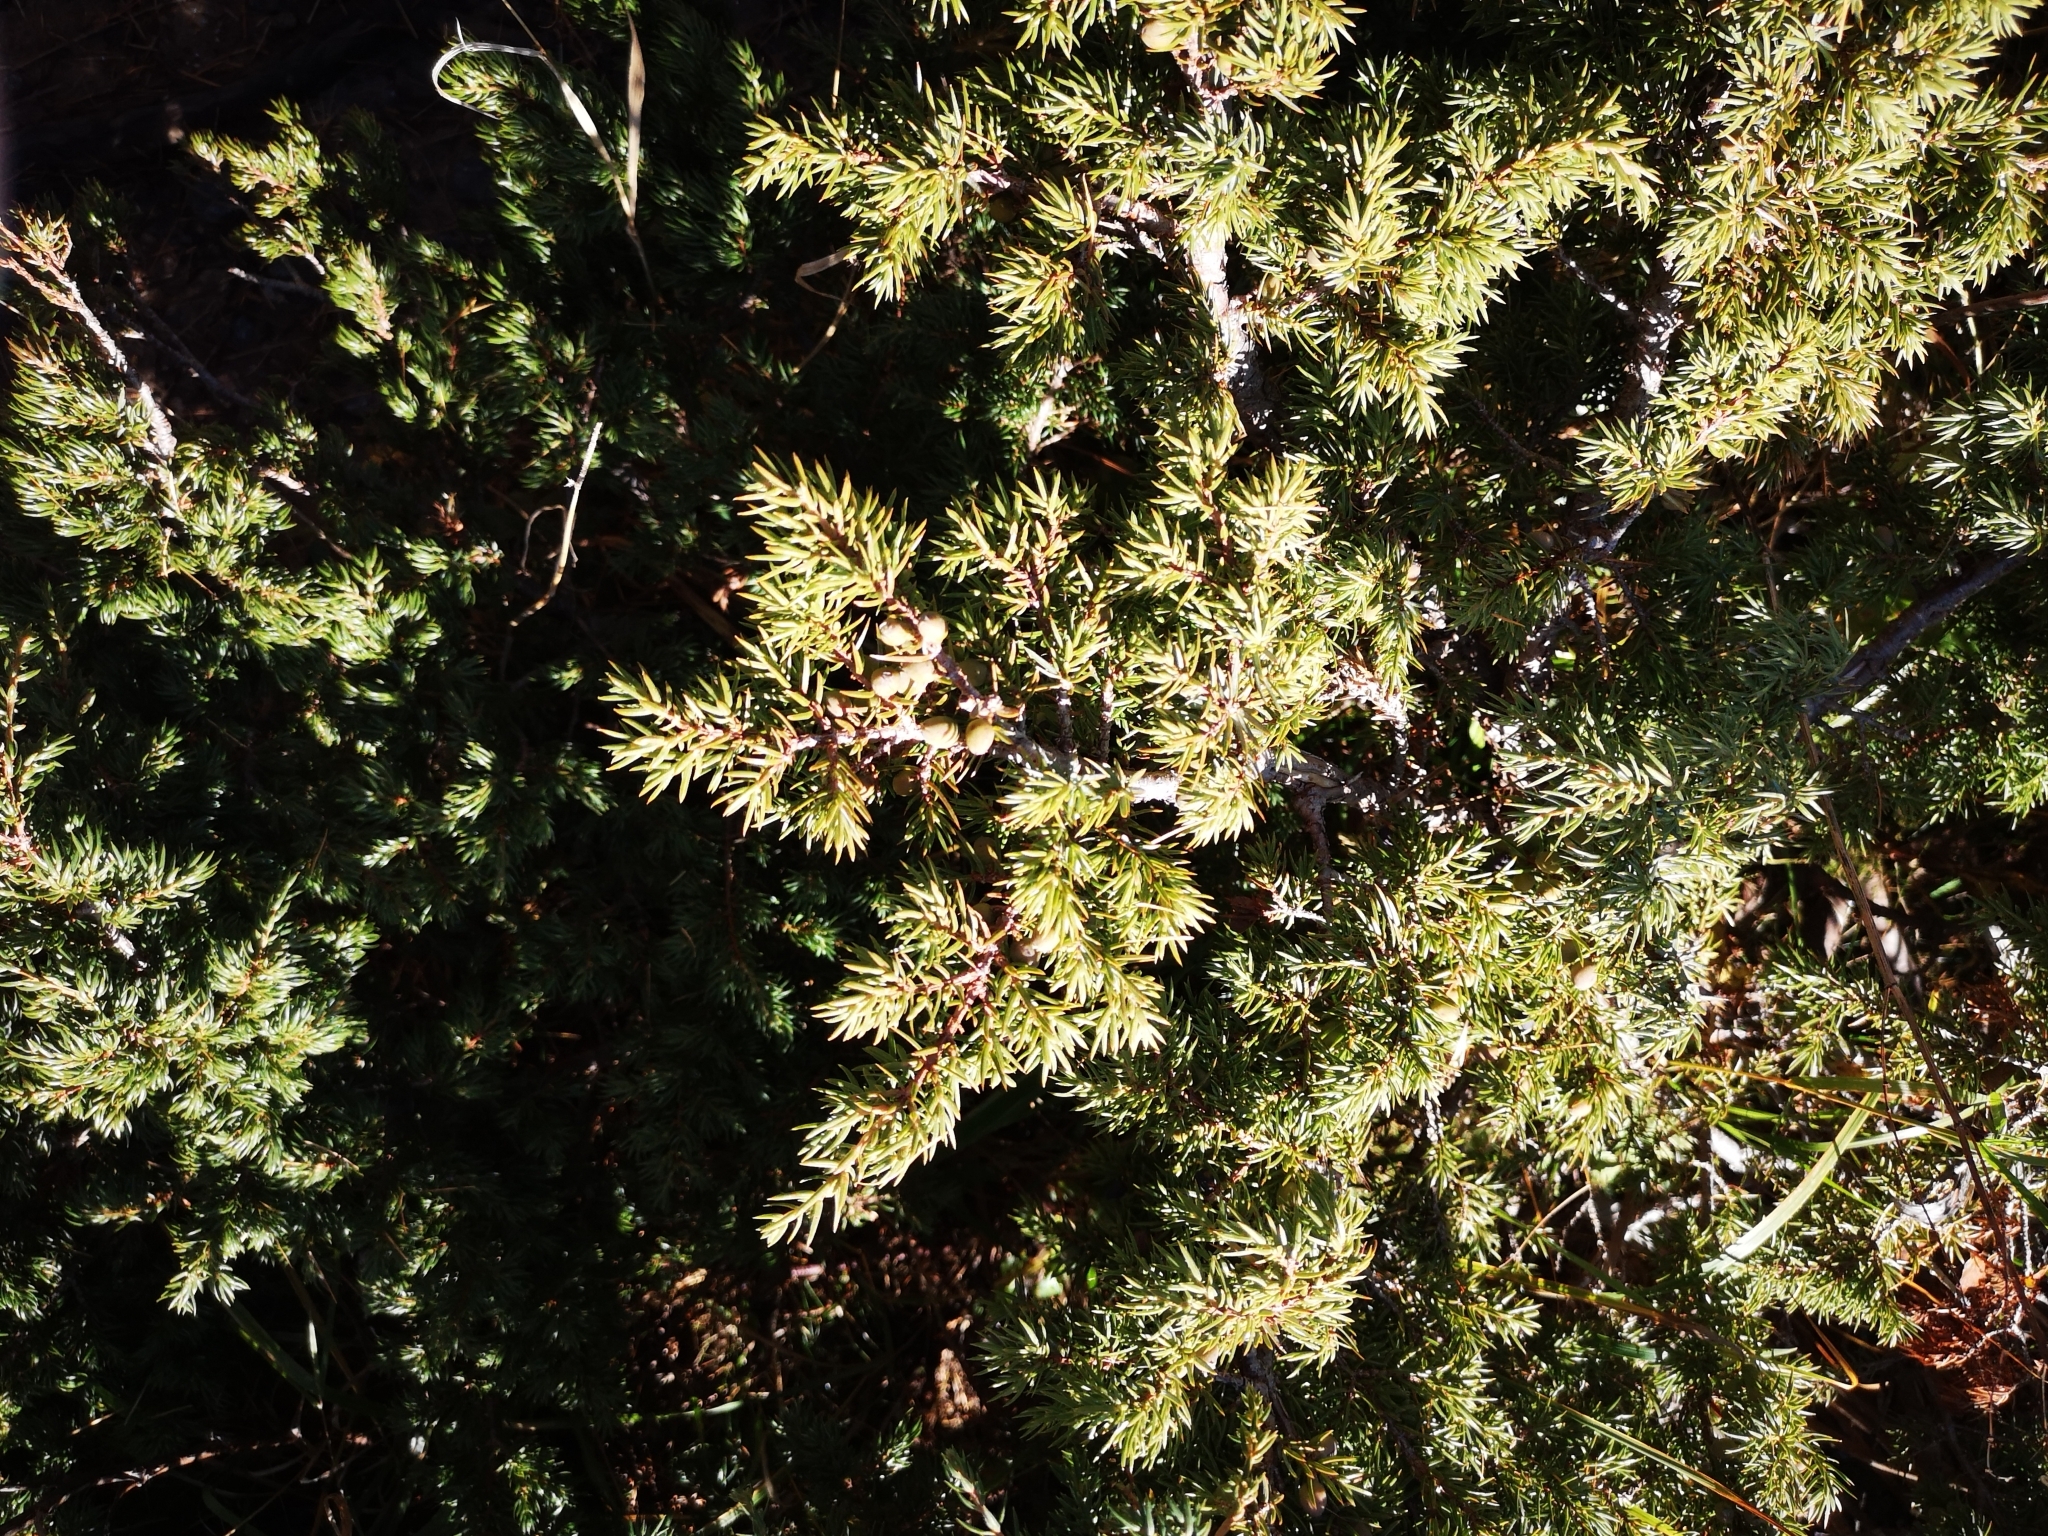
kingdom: Plantae
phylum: Tracheophyta
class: Pinopsida
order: Pinales
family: Cupressaceae
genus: Juniperus
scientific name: Juniperus communis
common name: Common juniper
